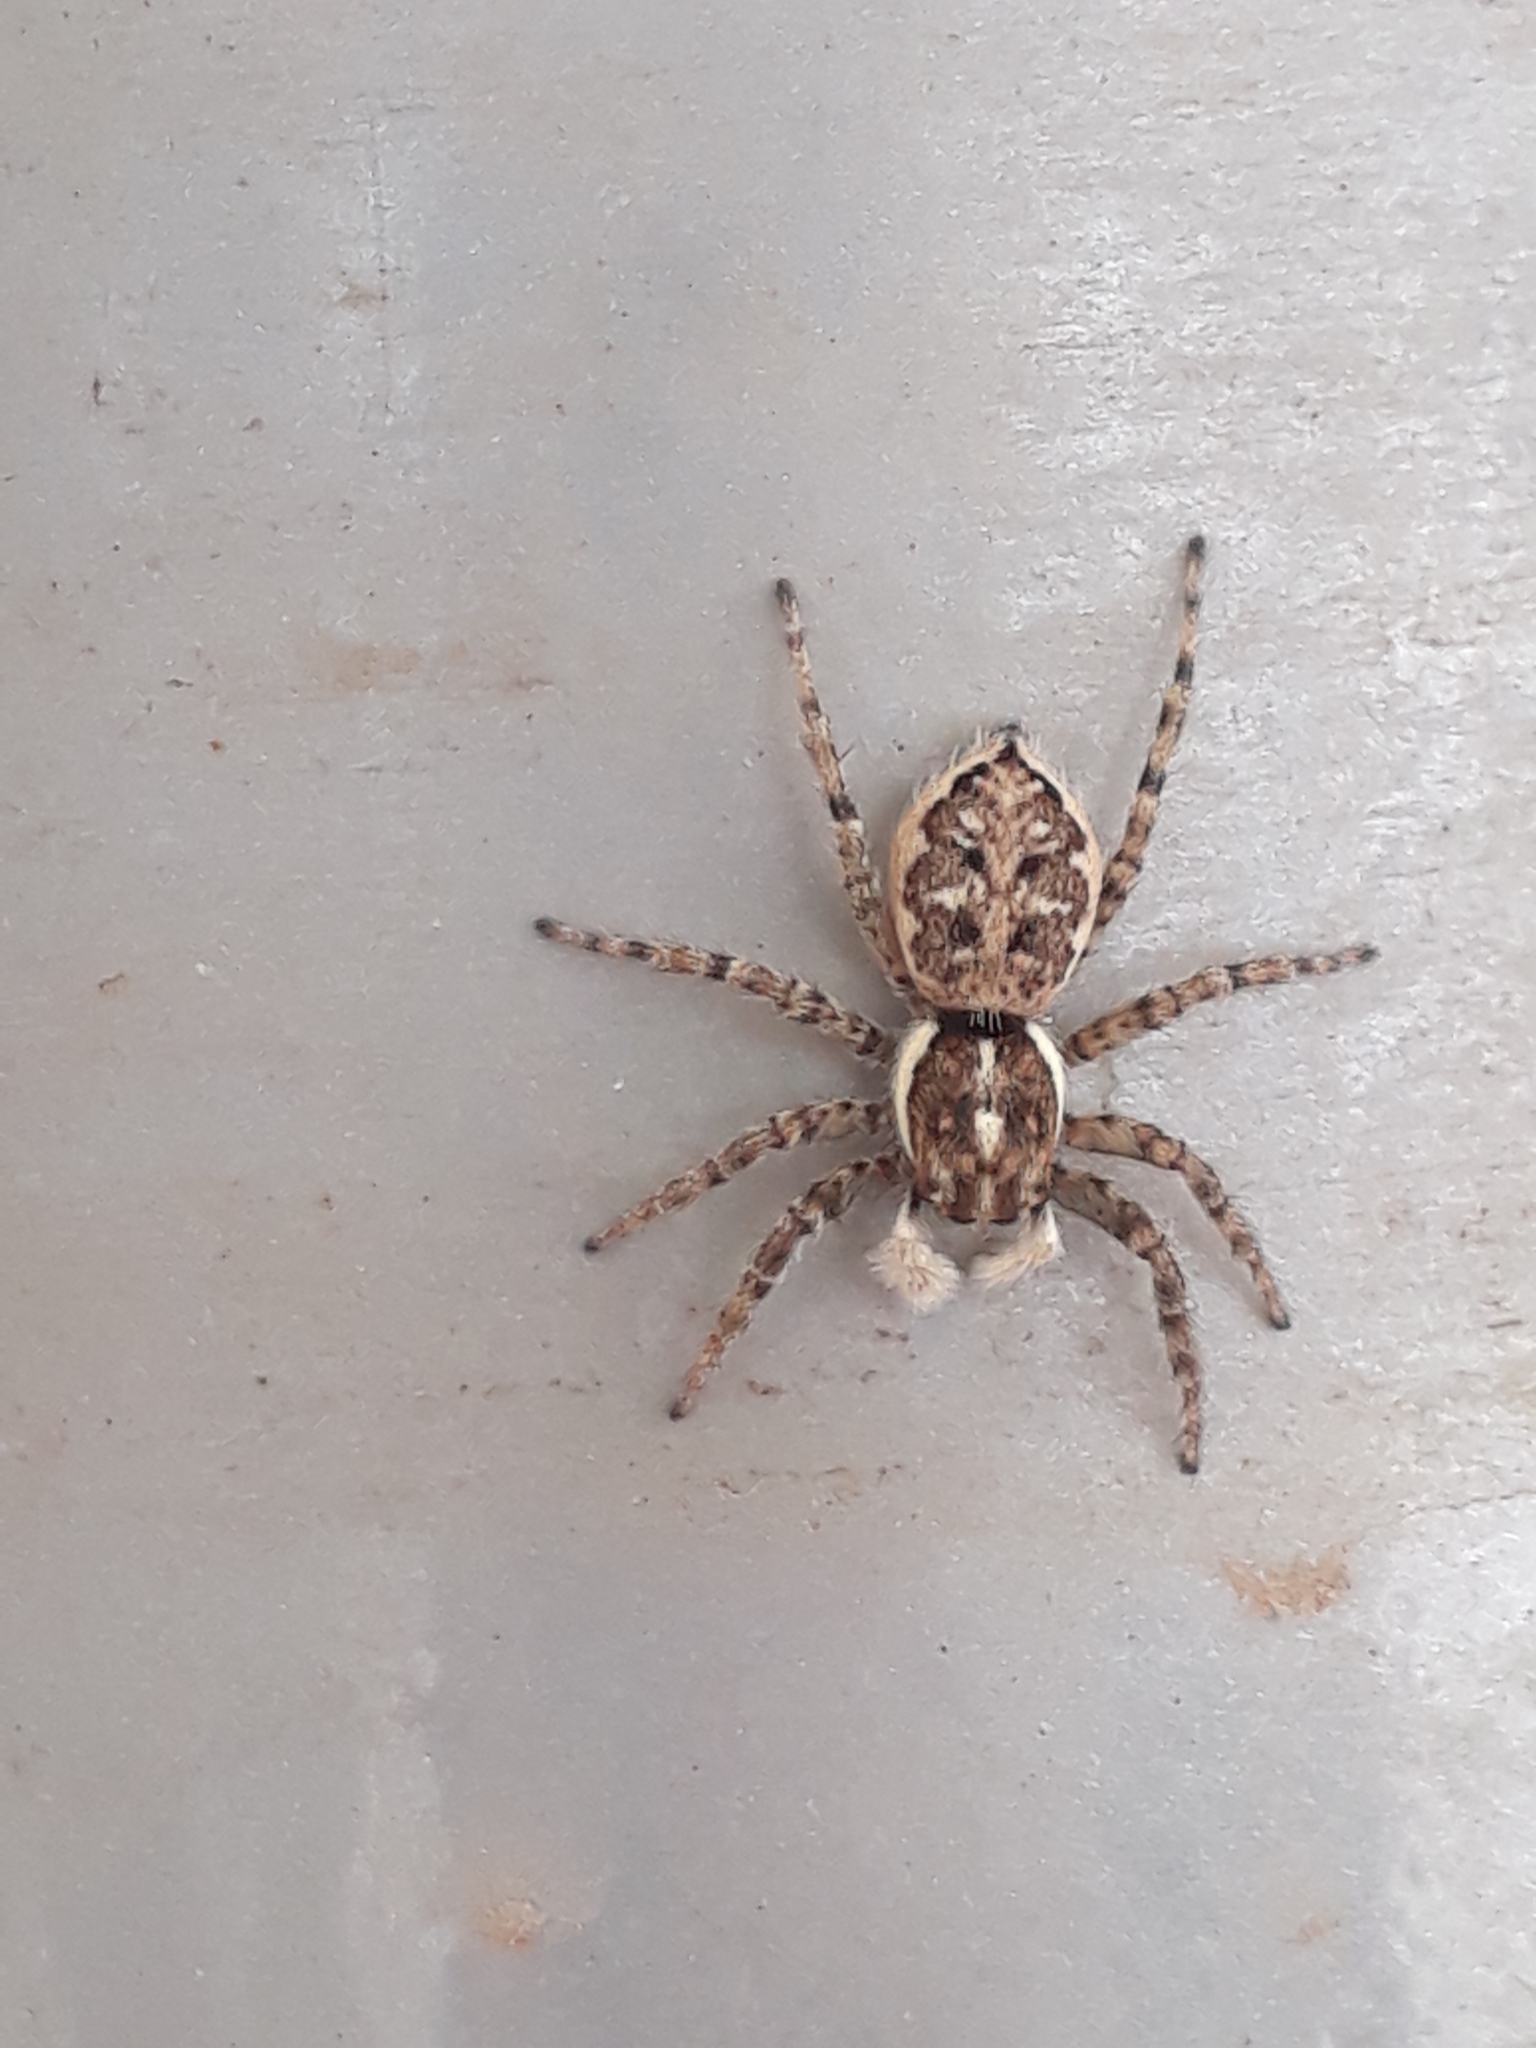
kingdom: Animalia
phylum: Arthropoda
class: Arachnida
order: Araneae
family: Salticidae
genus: Menemerus
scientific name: Menemerus semilimbatus
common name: Jumping spider
